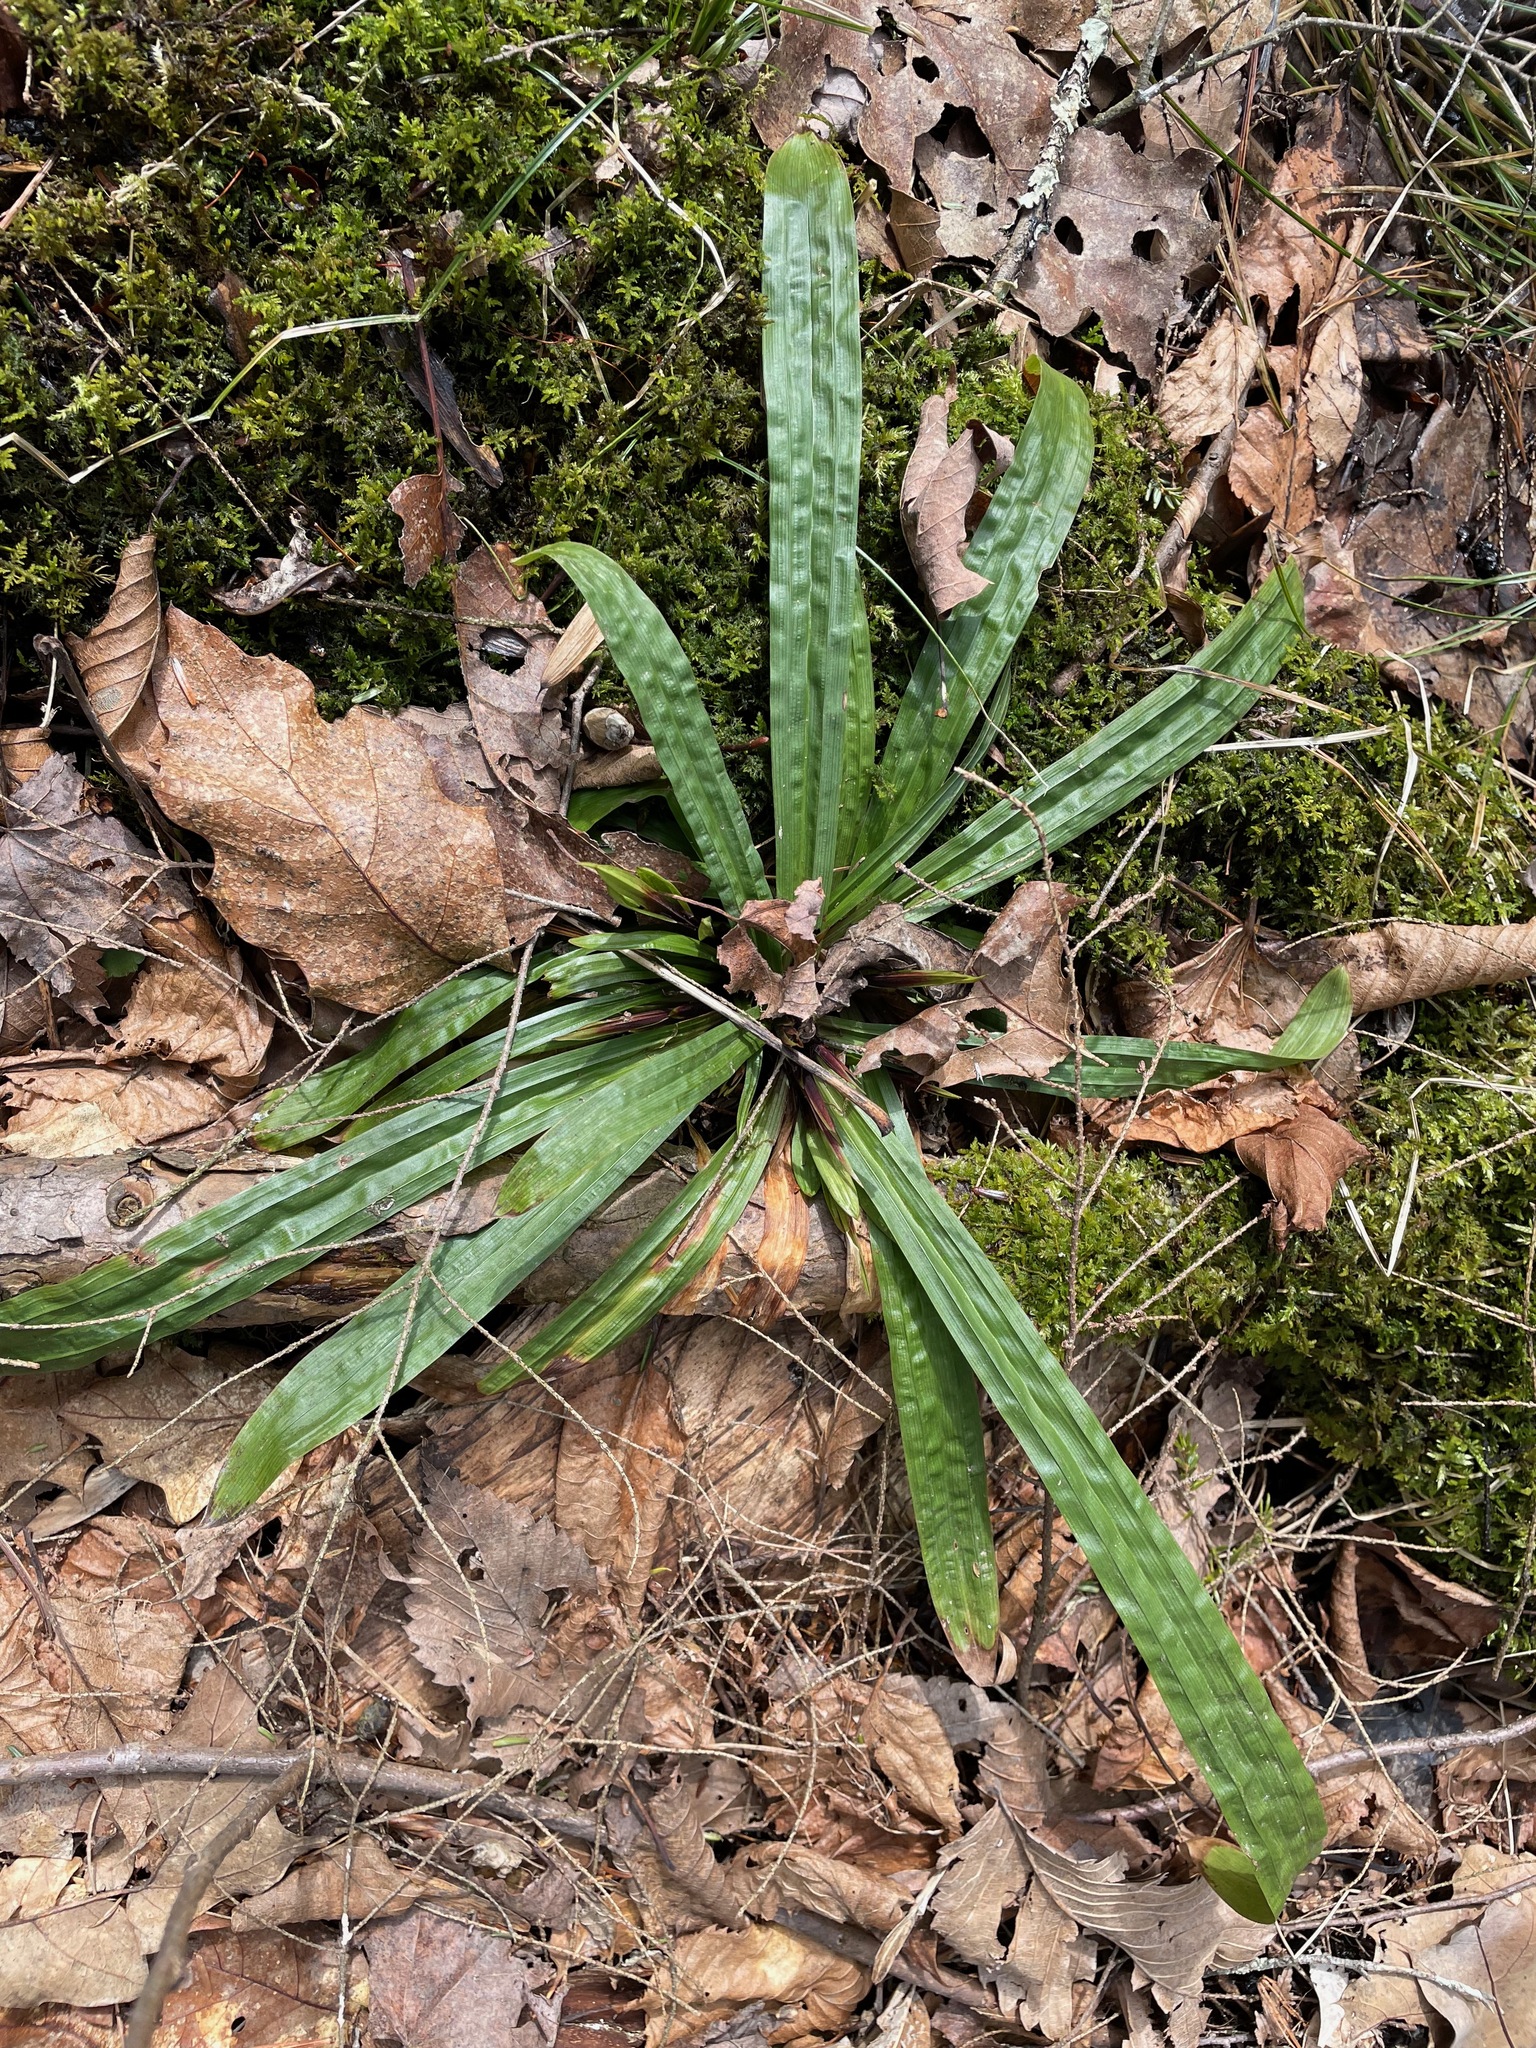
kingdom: Plantae
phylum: Tracheophyta
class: Liliopsida
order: Poales
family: Cyperaceae
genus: Carex
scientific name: Carex plantaginea
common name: Plantain-leaved sedge
